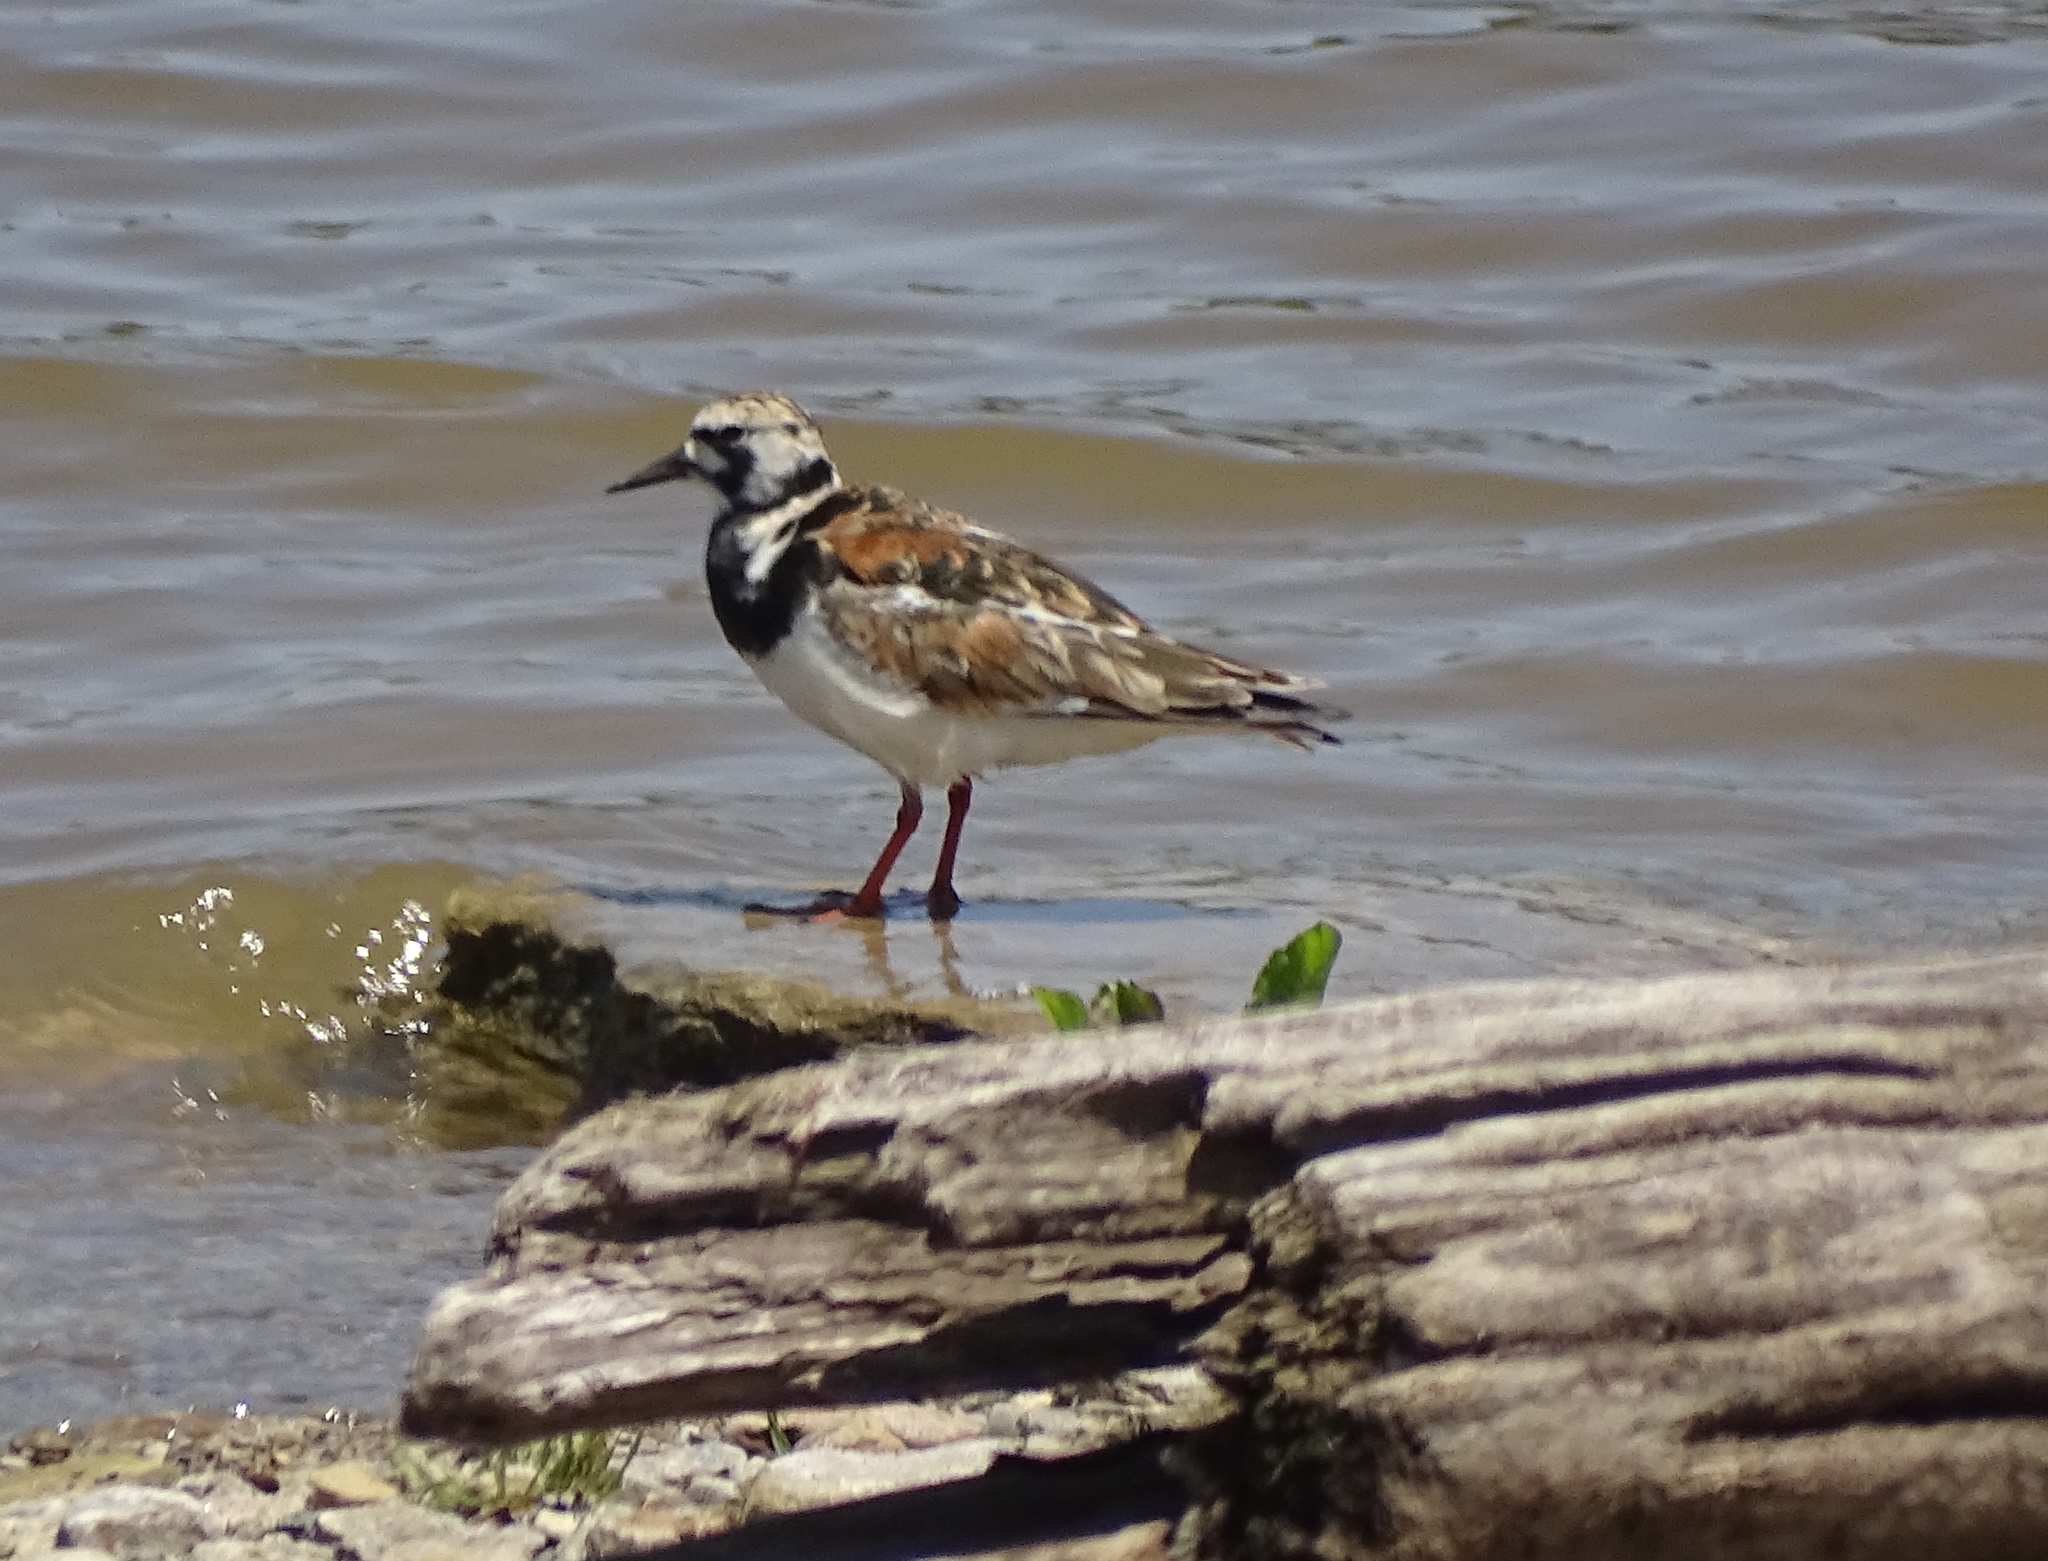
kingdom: Animalia
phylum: Chordata
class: Aves
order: Charadriiformes
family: Scolopacidae
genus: Arenaria
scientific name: Arenaria interpres
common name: Ruddy turnstone
